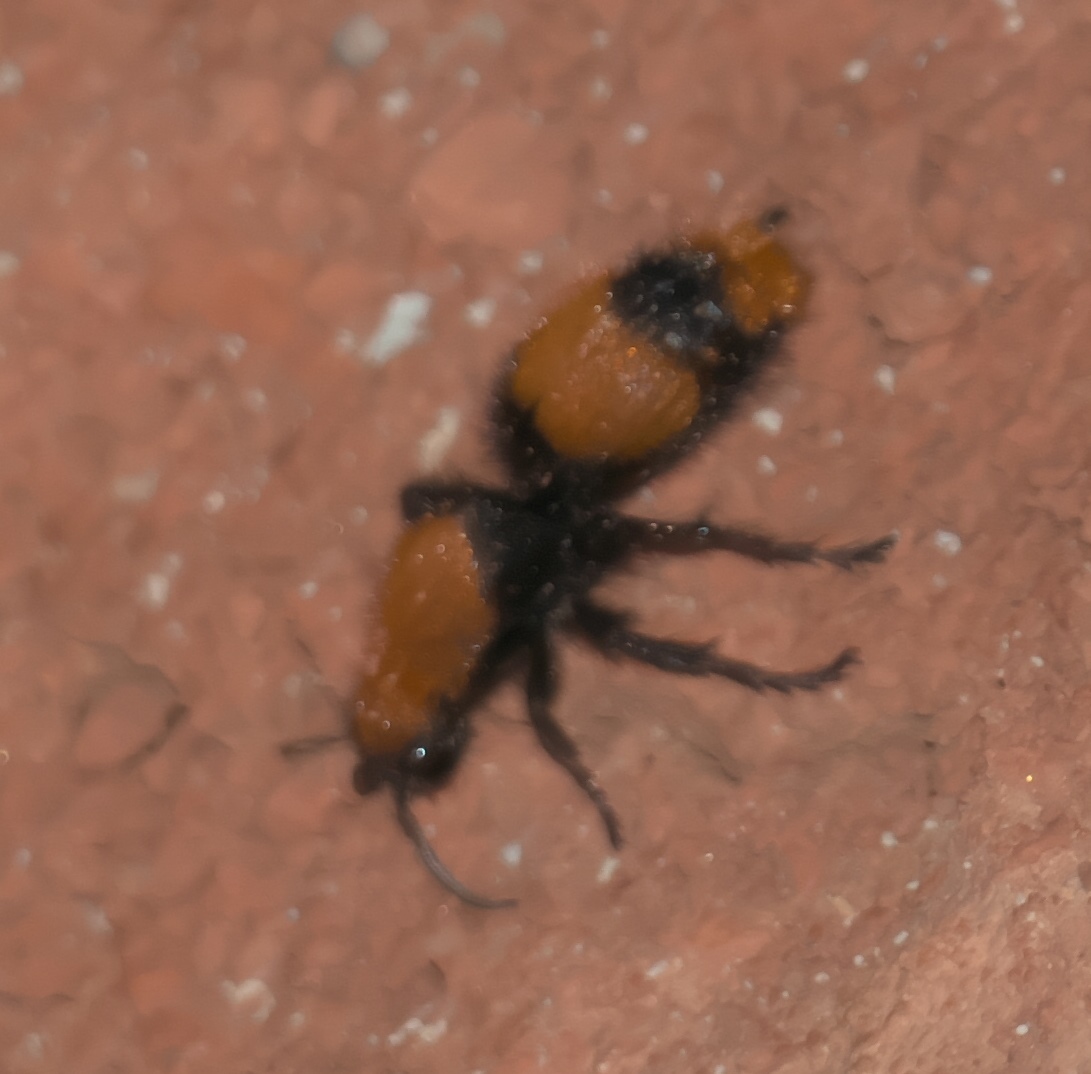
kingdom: Animalia
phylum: Arthropoda
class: Insecta
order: Hymenoptera
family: Mutillidae
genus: Dasymutilla
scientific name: Dasymutilla occidentalis
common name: Common eastern velvet ant
